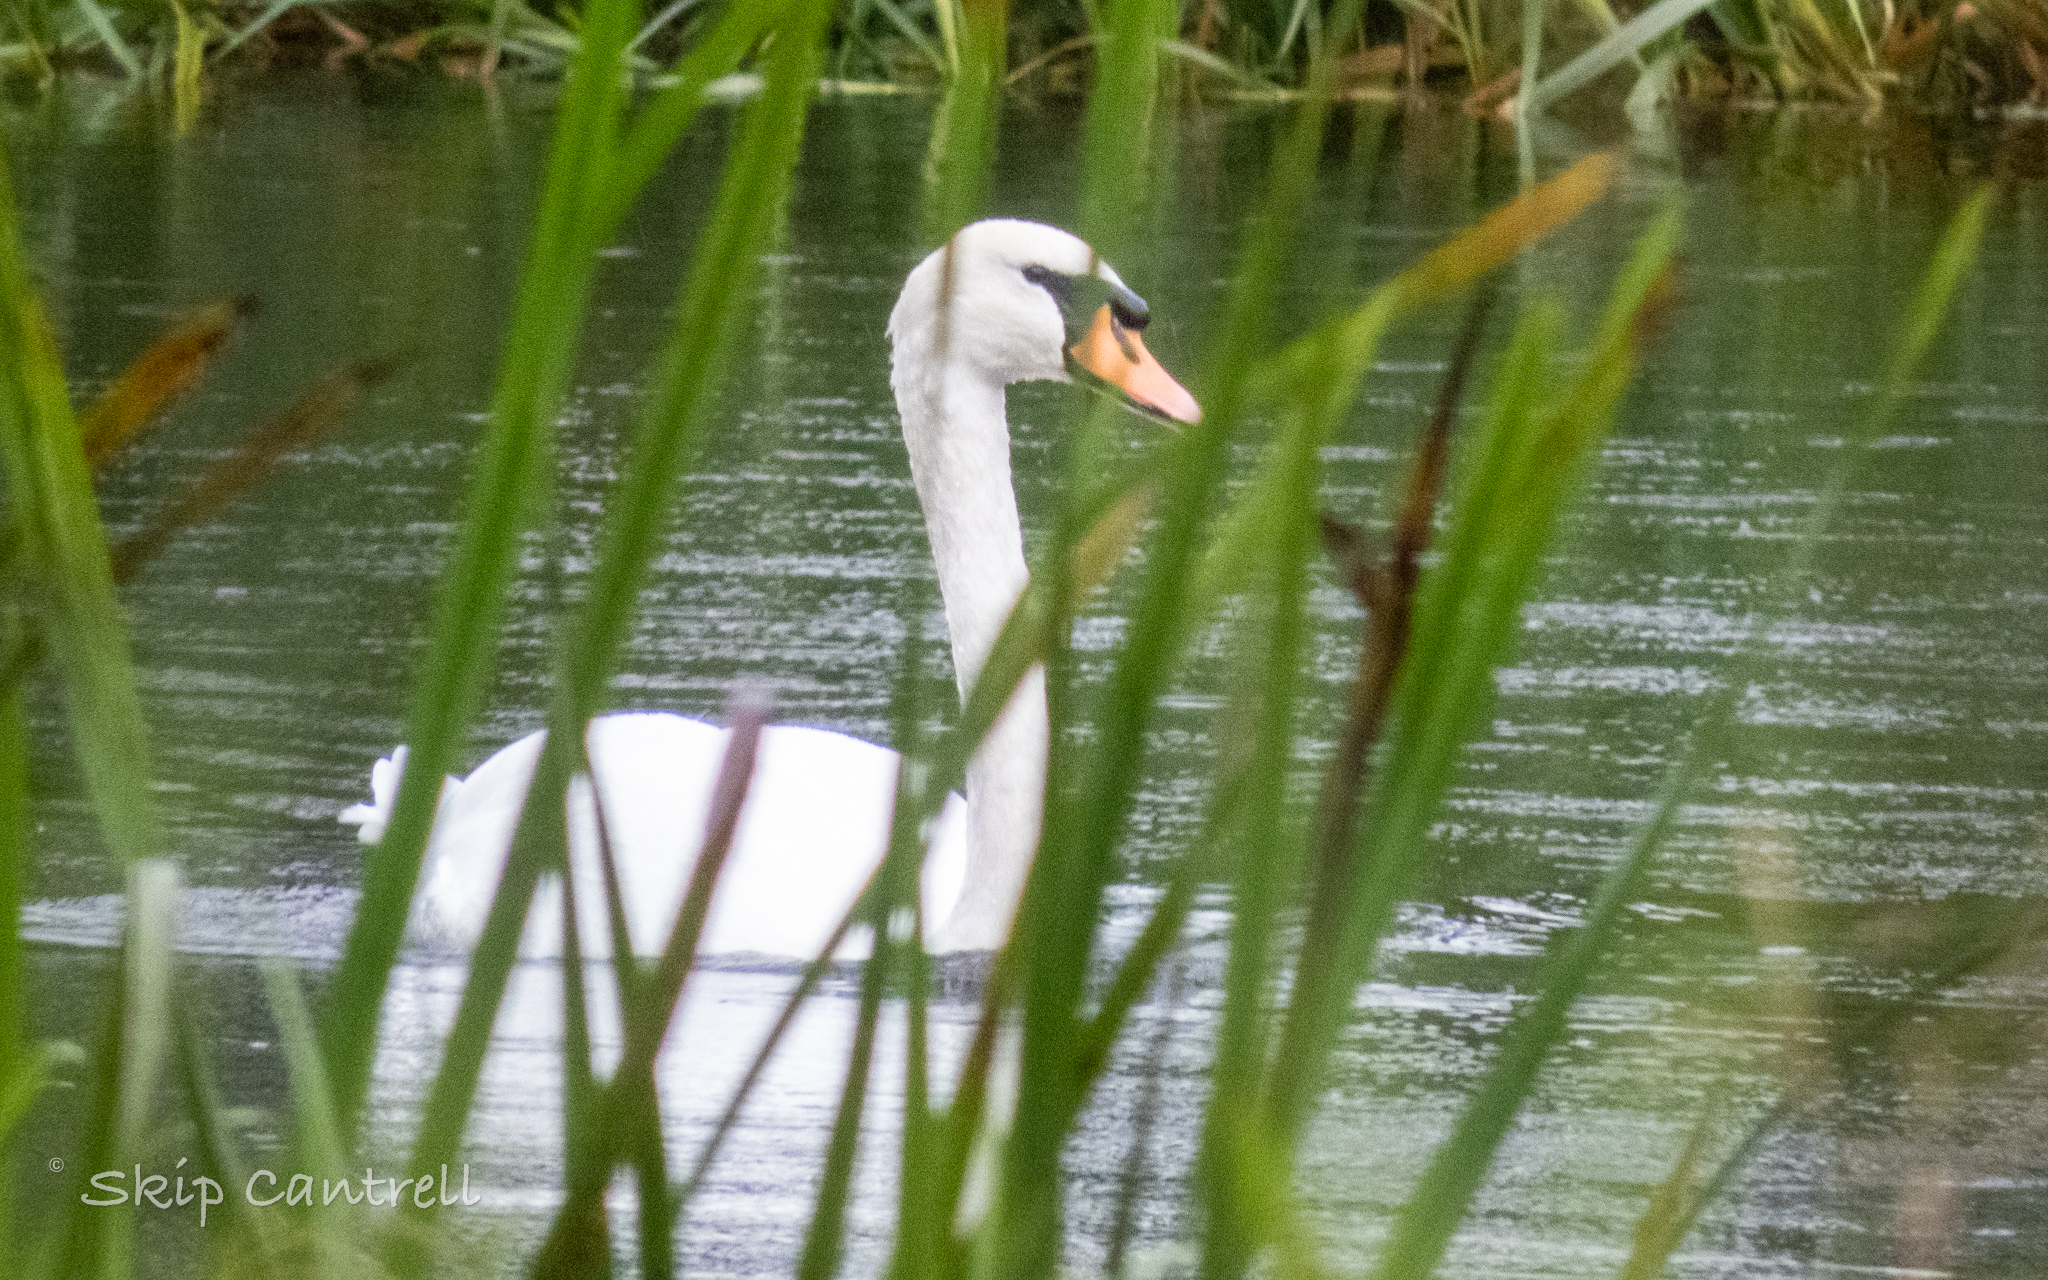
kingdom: Animalia
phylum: Chordata
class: Aves
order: Anseriformes
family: Anatidae
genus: Cygnus
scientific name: Cygnus olor
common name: Mute swan
